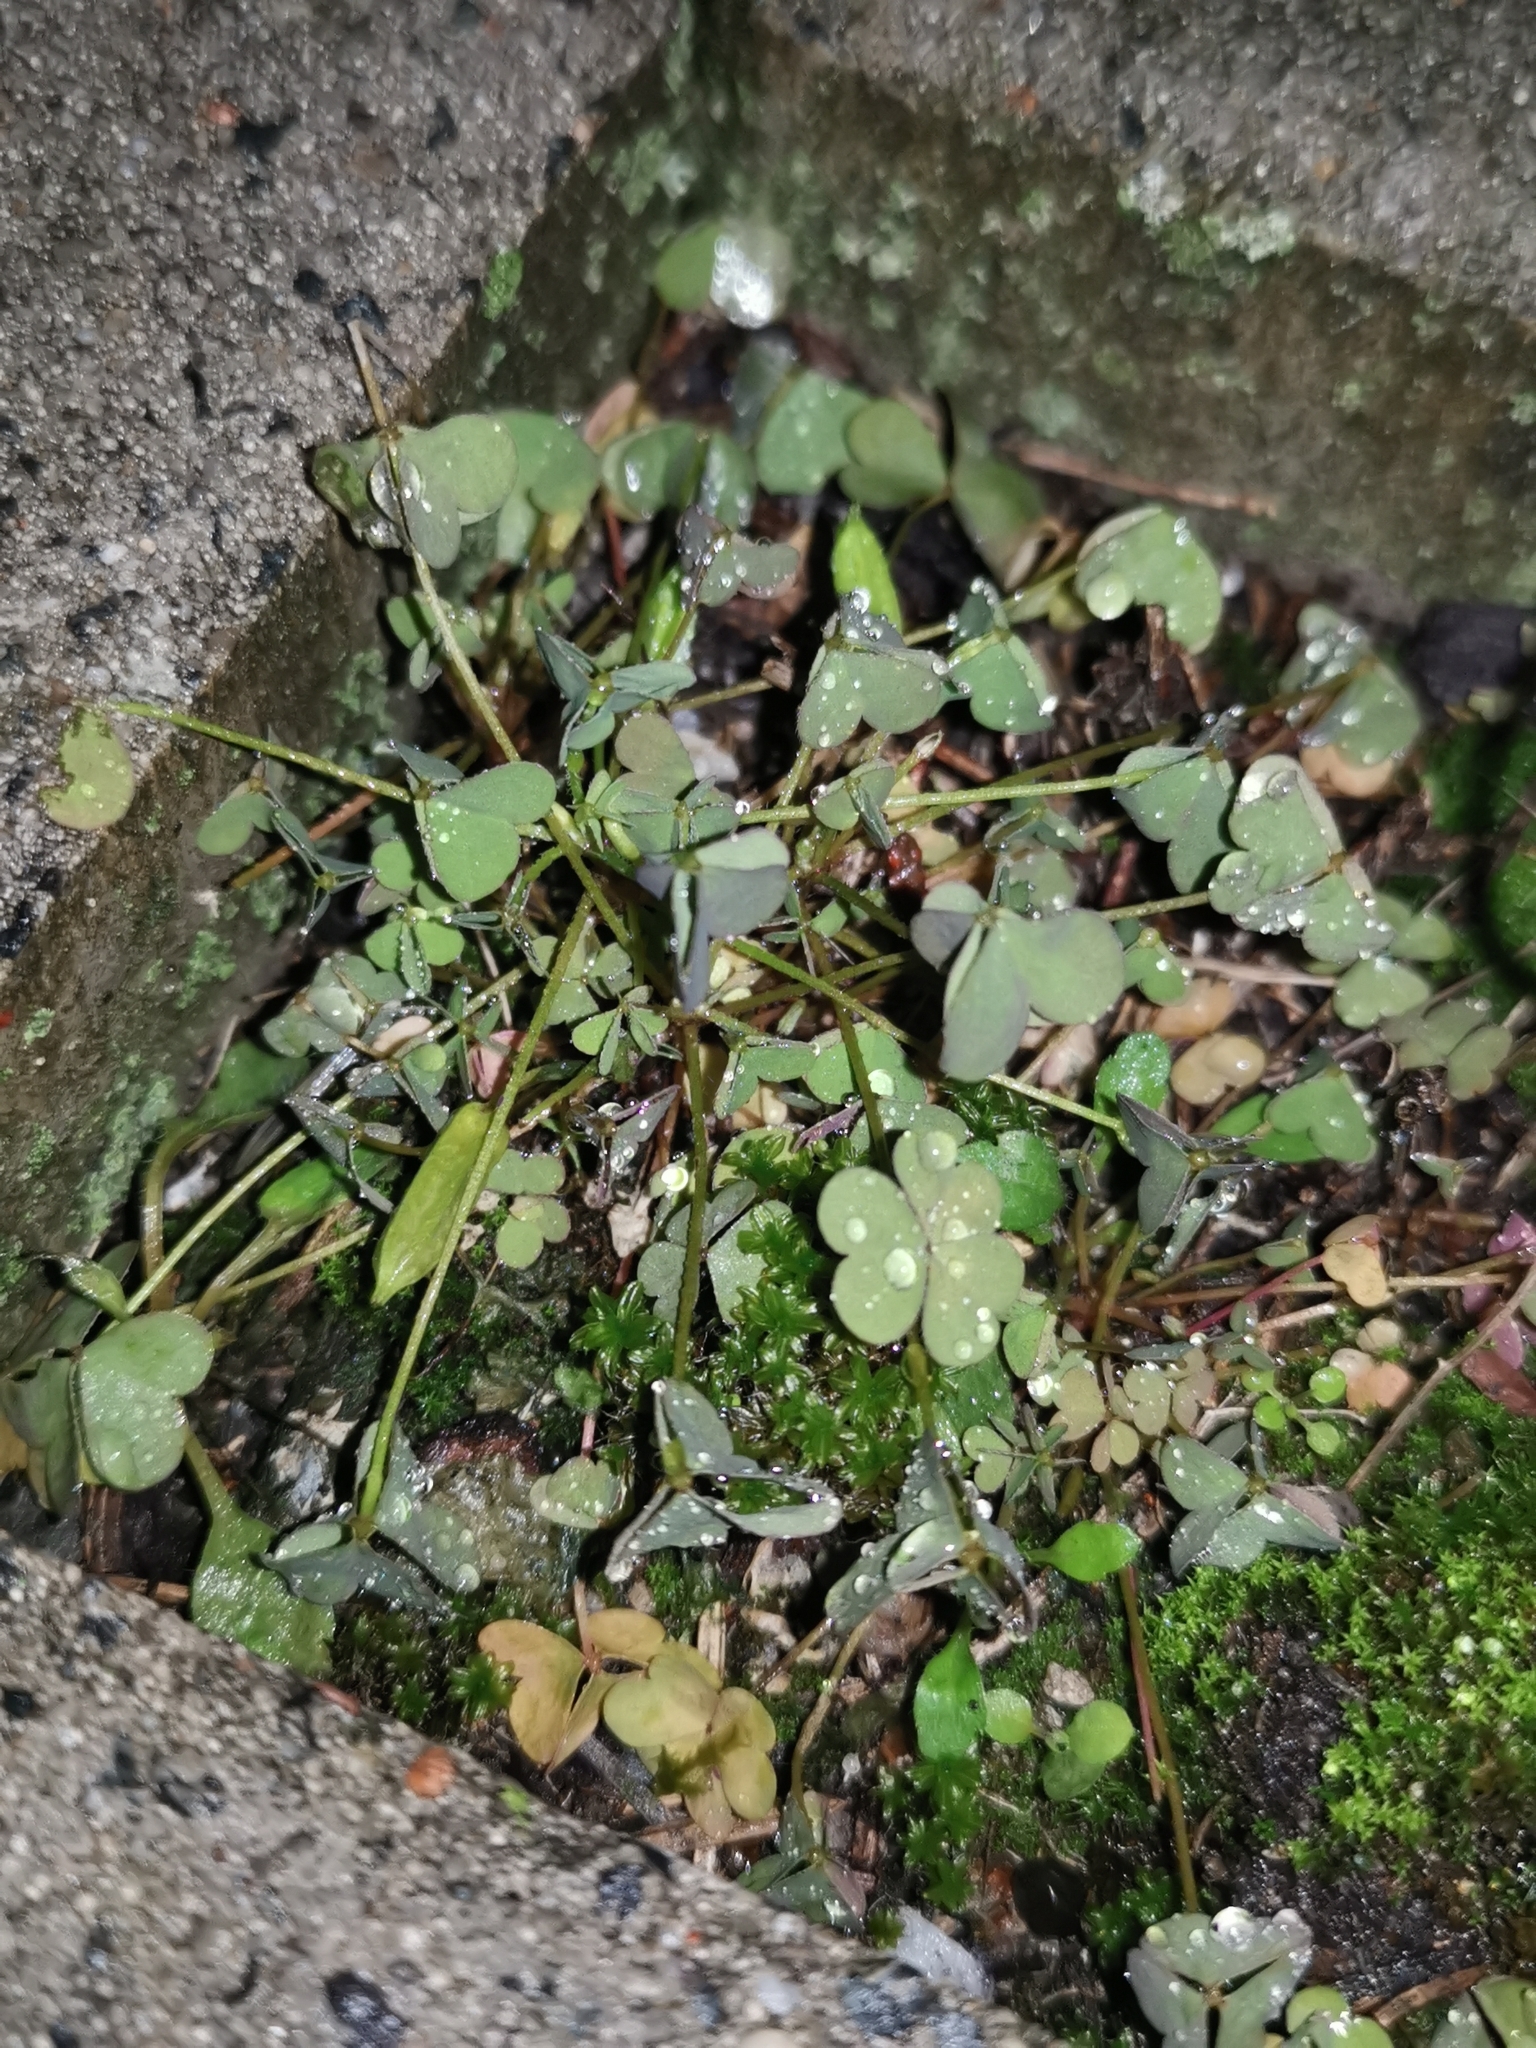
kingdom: Plantae
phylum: Tracheophyta
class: Magnoliopsida
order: Oxalidales
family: Oxalidaceae
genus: Oxalis
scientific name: Oxalis corniculata
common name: Procumbent yellow-sorrel
